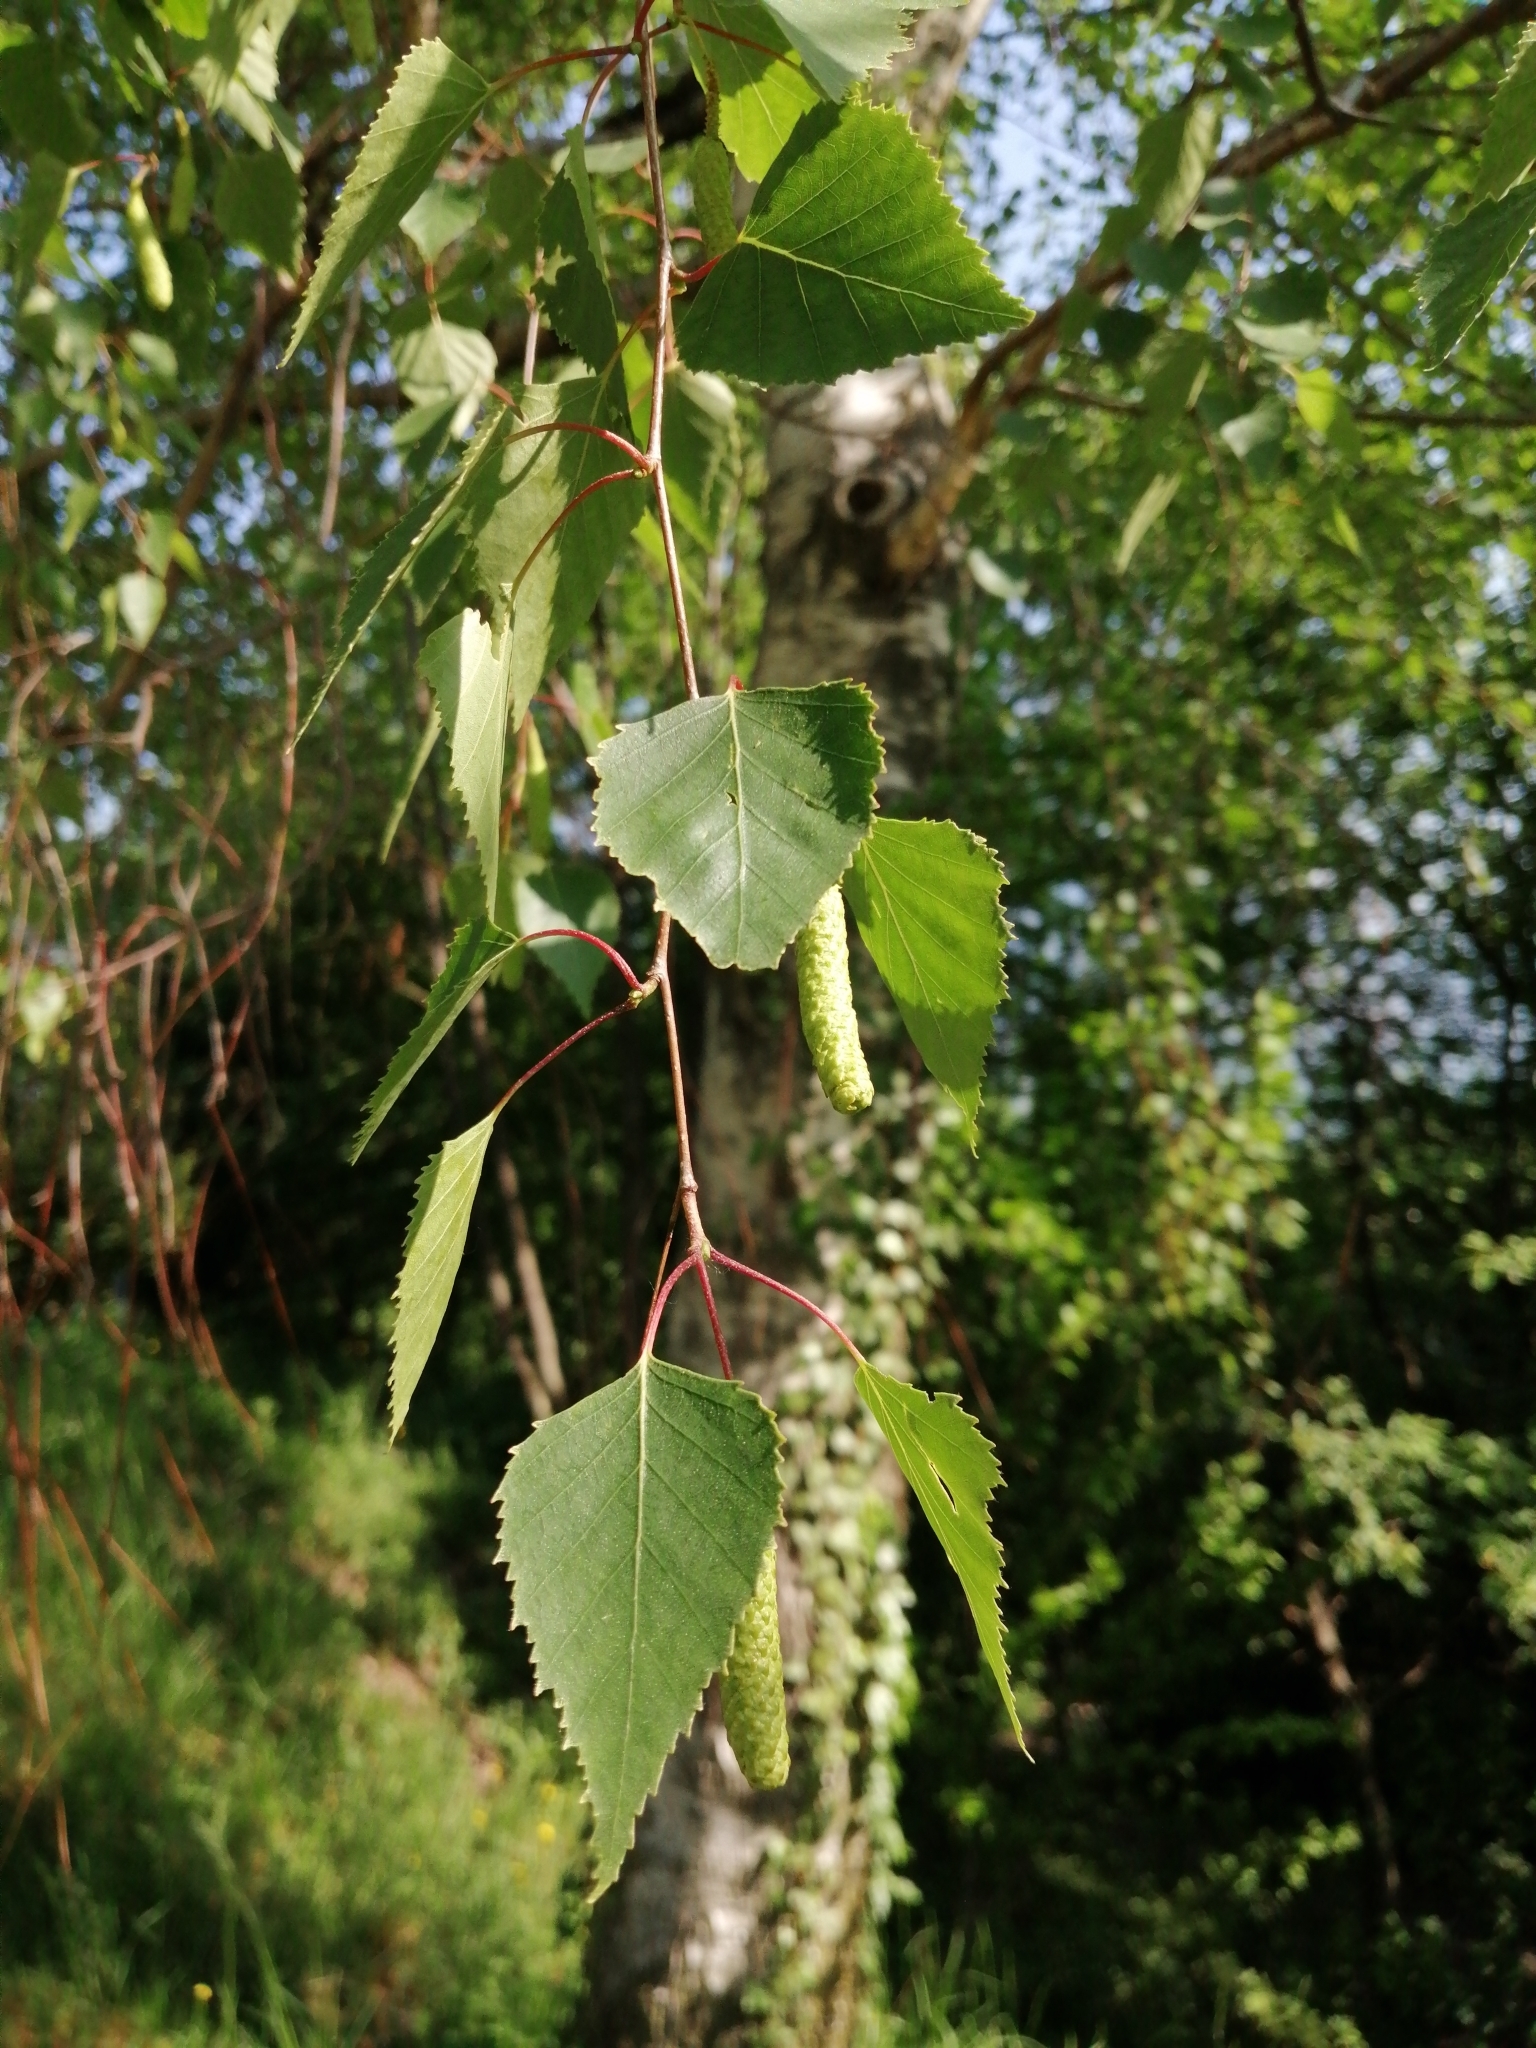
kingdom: Plantae
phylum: Tracheophyta
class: Magnoliopsida
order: Fagales
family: Betulaceae
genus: Betula
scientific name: Betula pendula
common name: Silver birch
